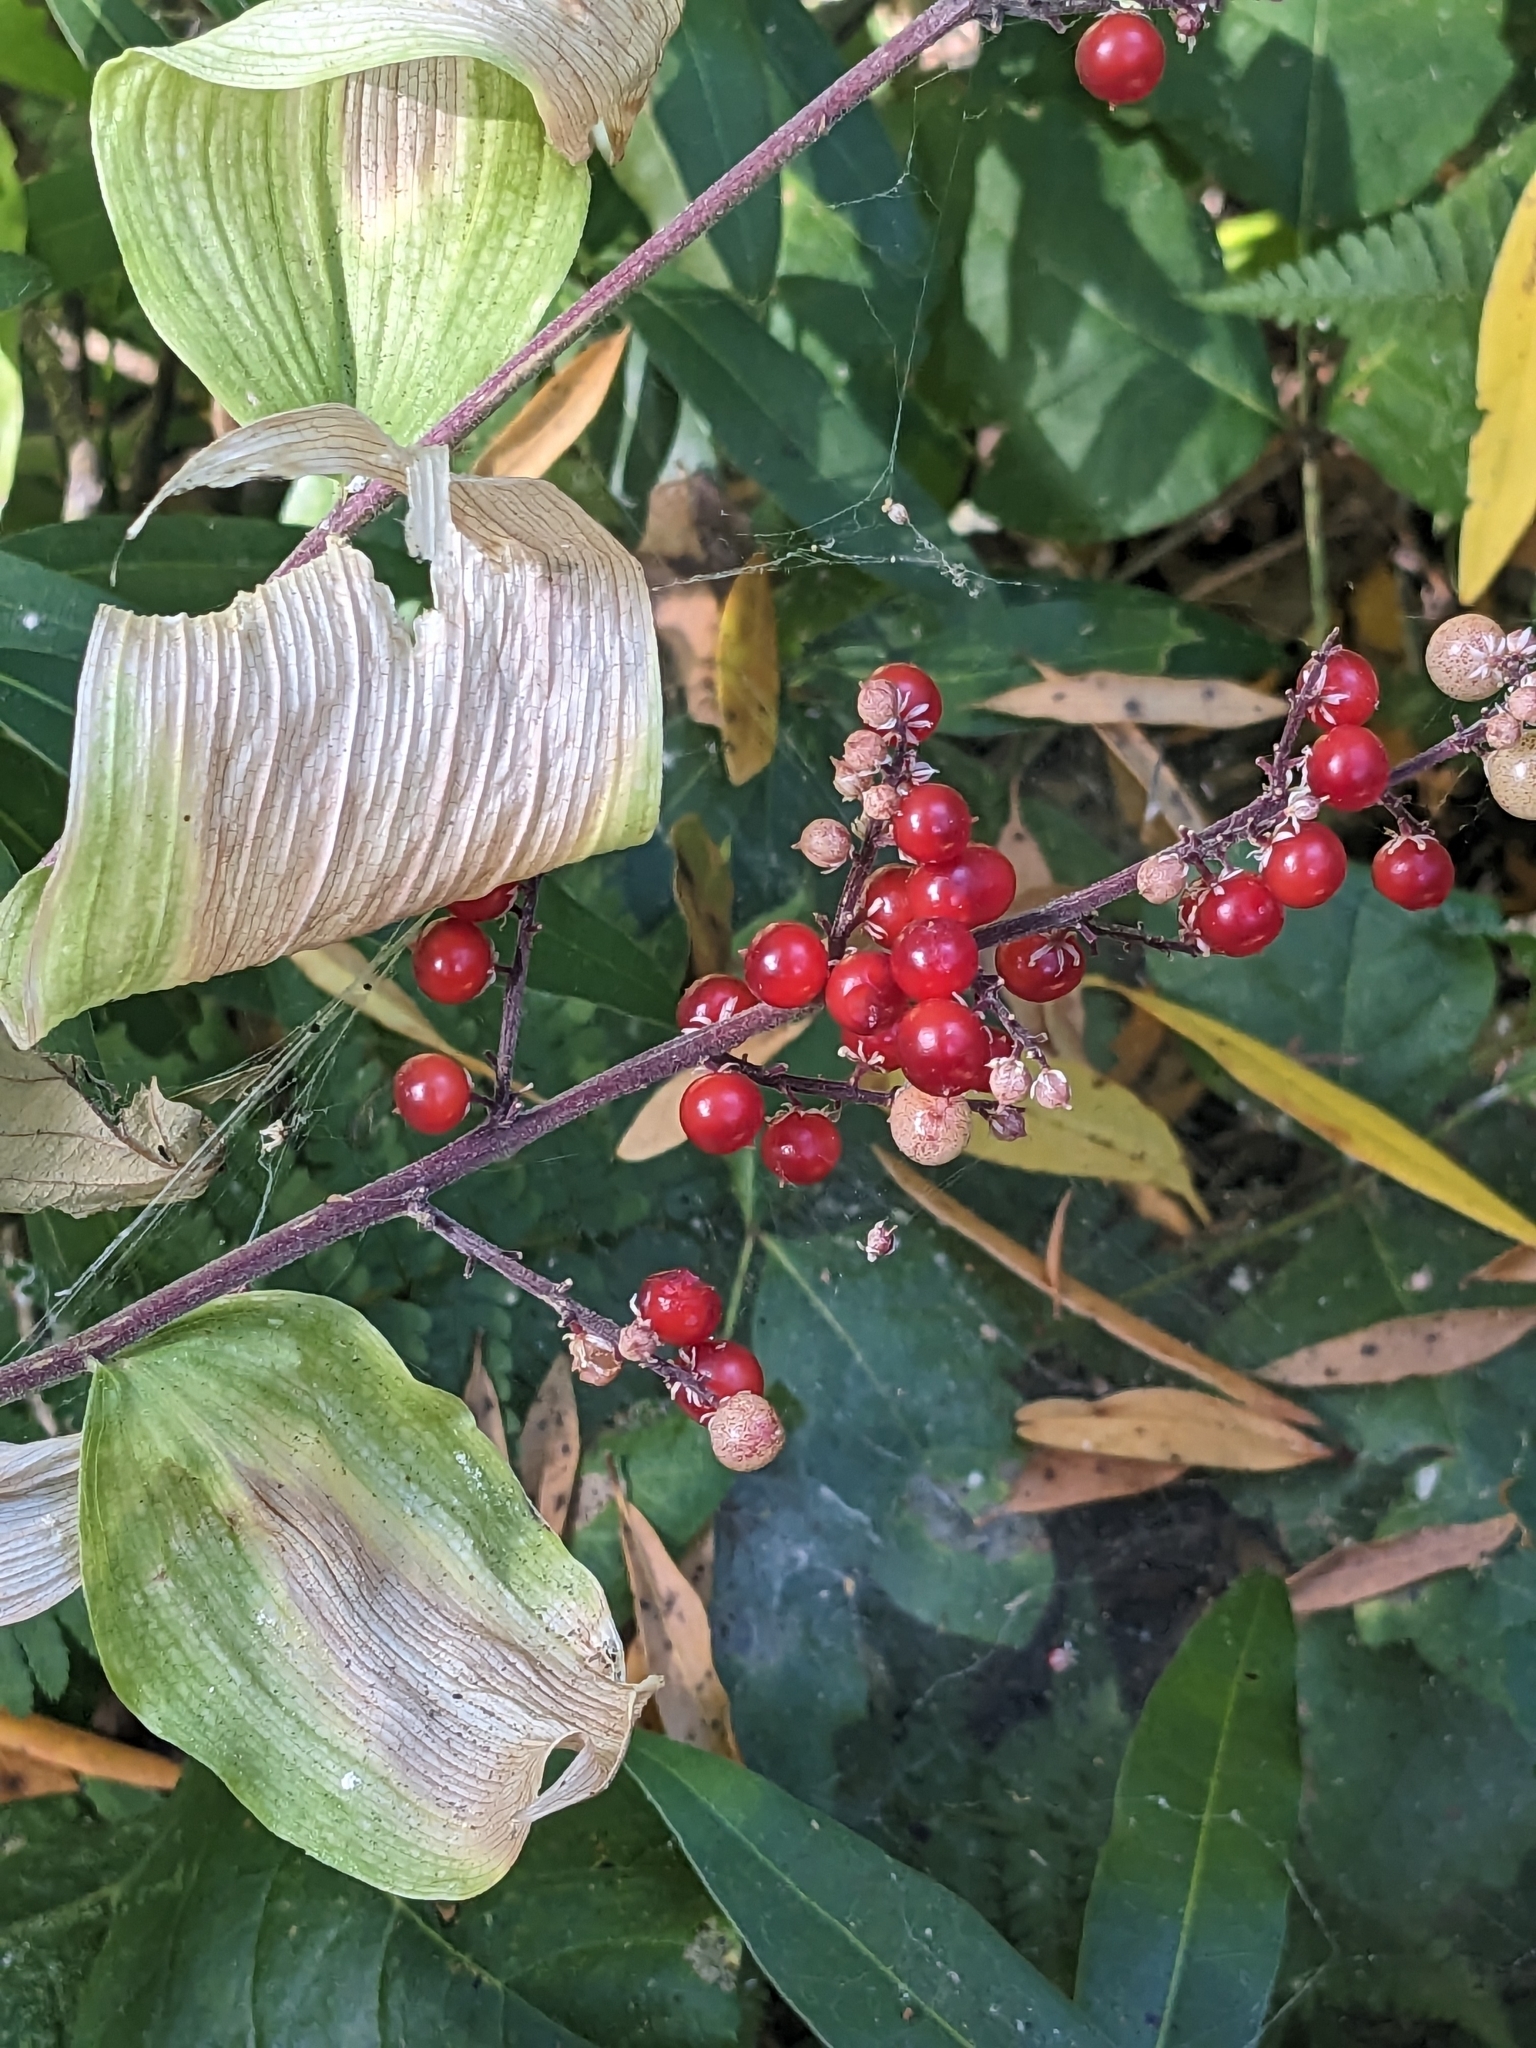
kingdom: Plantae
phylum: Tracheophyta
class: Liliopsida
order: Asparagales
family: Asparagaceae
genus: Maianthemum
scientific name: Maianthemum racemosum
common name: False spikenard
